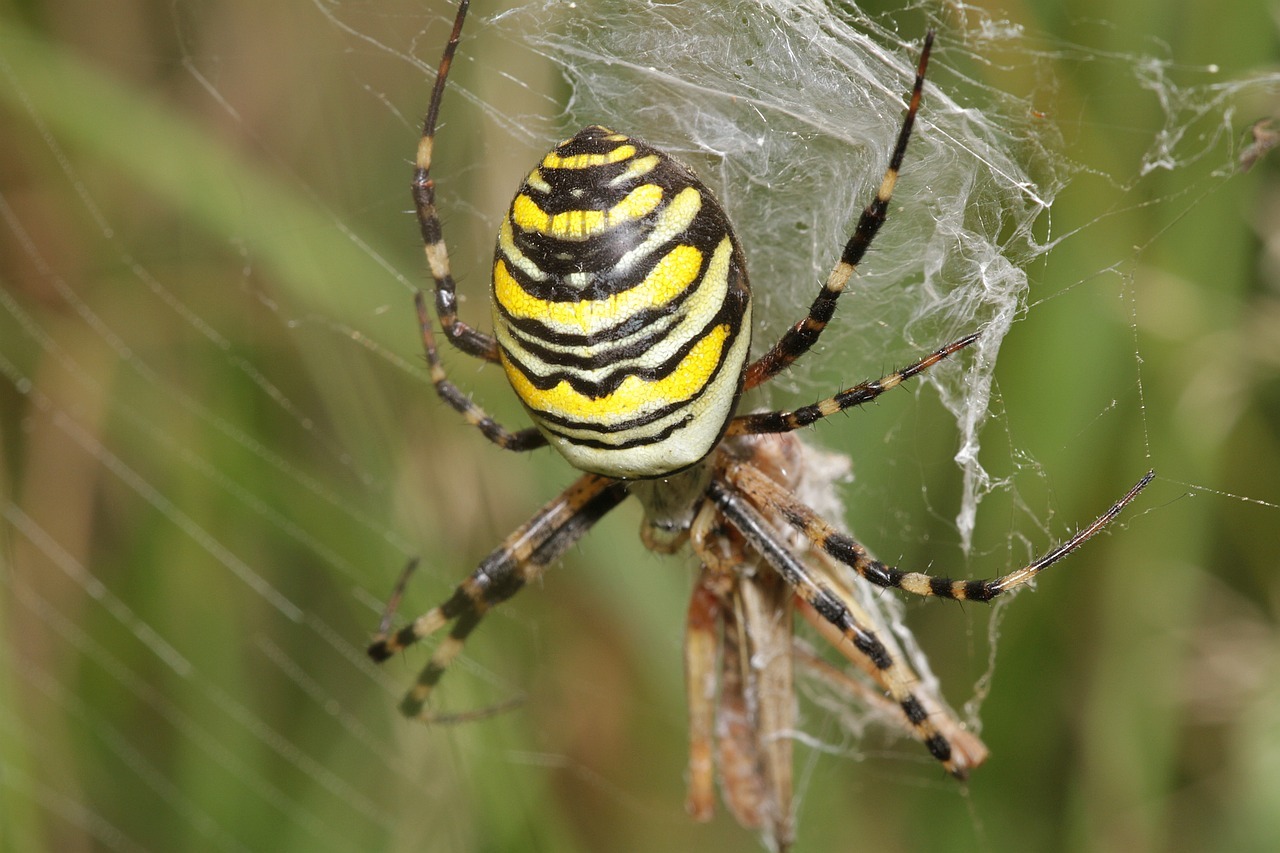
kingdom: Animalia
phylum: Arthropoda
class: Arachnida
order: Araneae
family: Araneidae
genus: Argiope
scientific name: Argiope bruennichi
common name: Wasp spider
